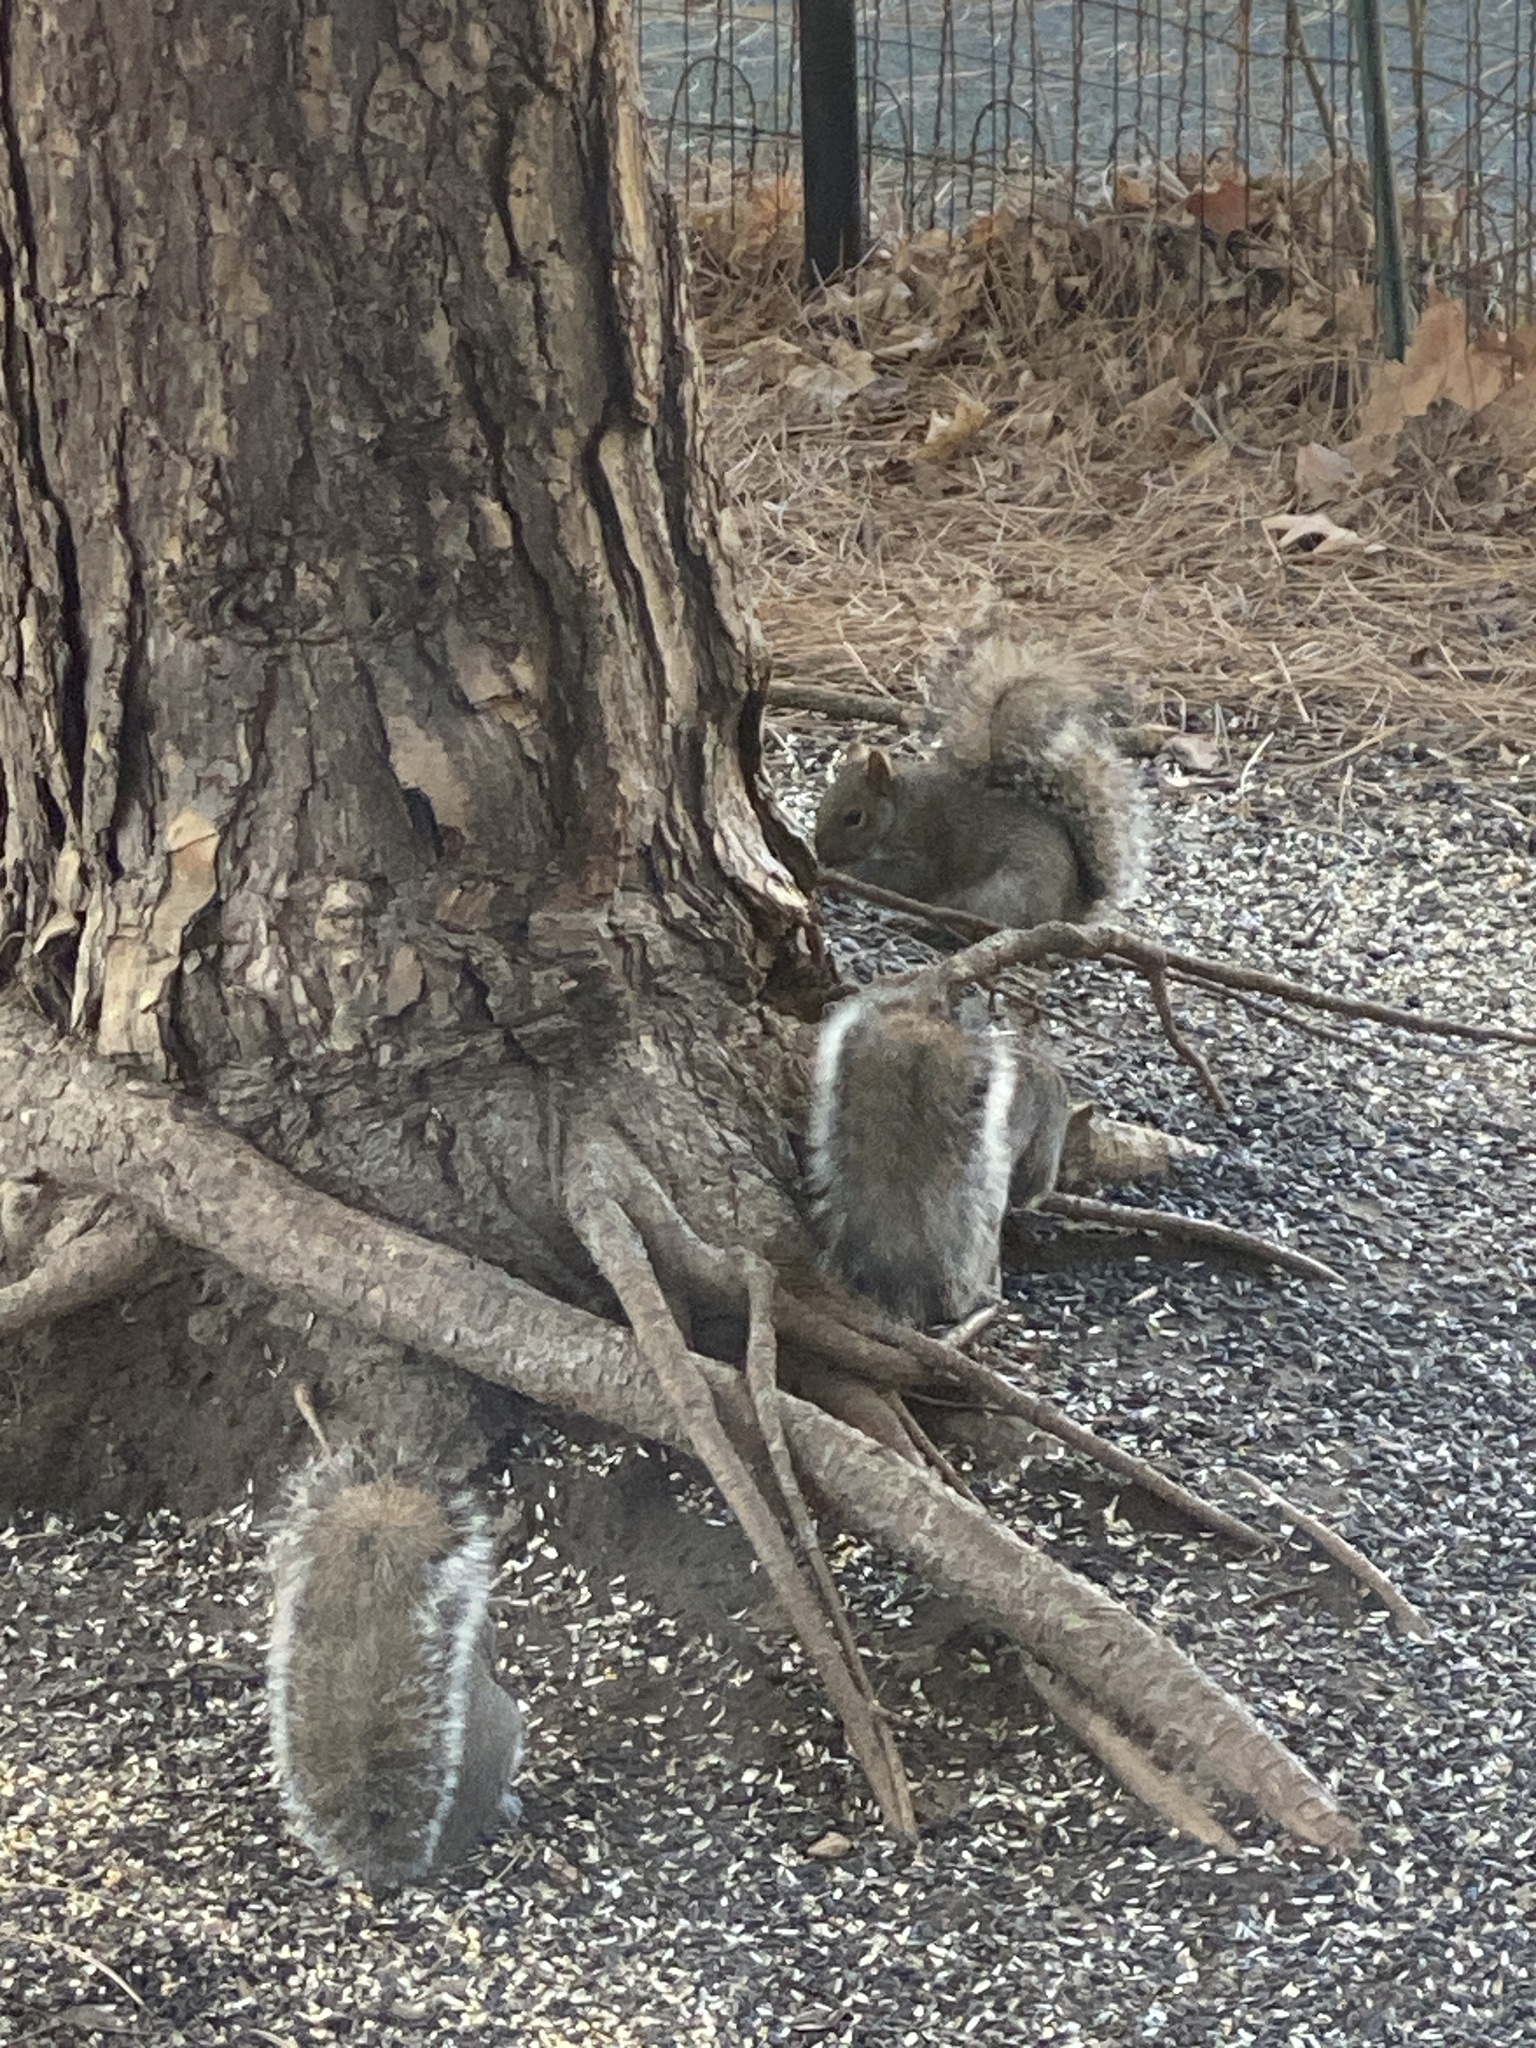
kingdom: Animalia
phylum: Chordata
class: Mammalia
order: Rodentia
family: Sciuridae
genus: Sciurus
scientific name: Sciurus carolinensis
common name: Eastern gray squirrel
